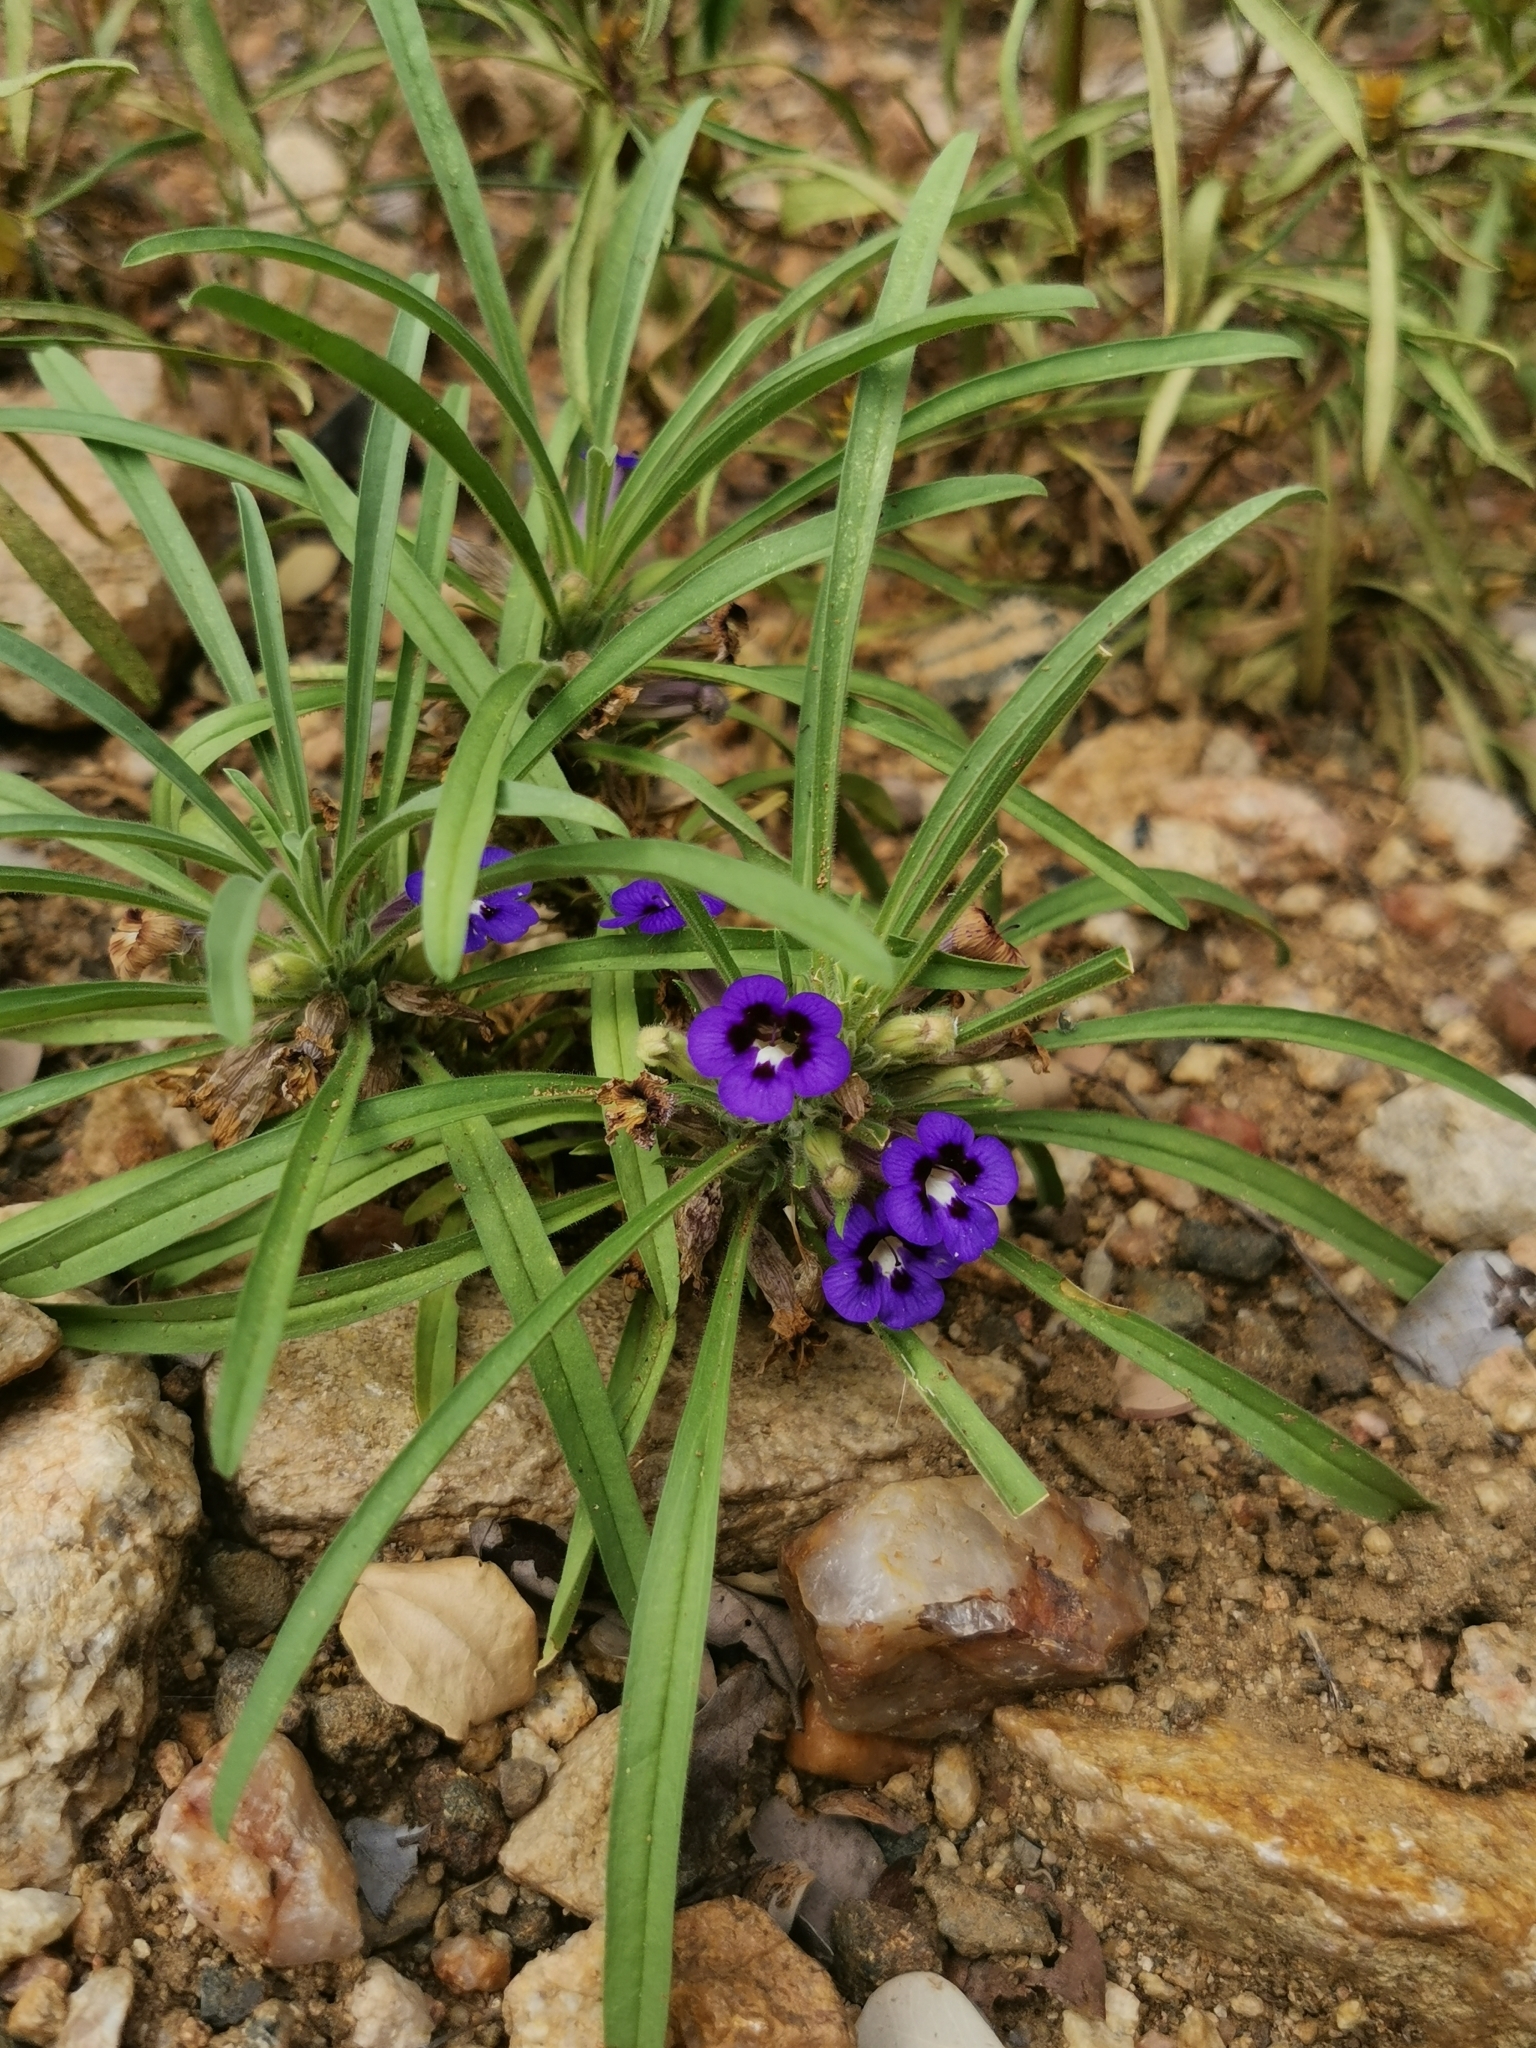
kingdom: Plantae
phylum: Tracheophyta
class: Magnoliopsida
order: Lamiales
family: Scrophulariaceae
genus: Aptosimum
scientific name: Aptosimum lineare
